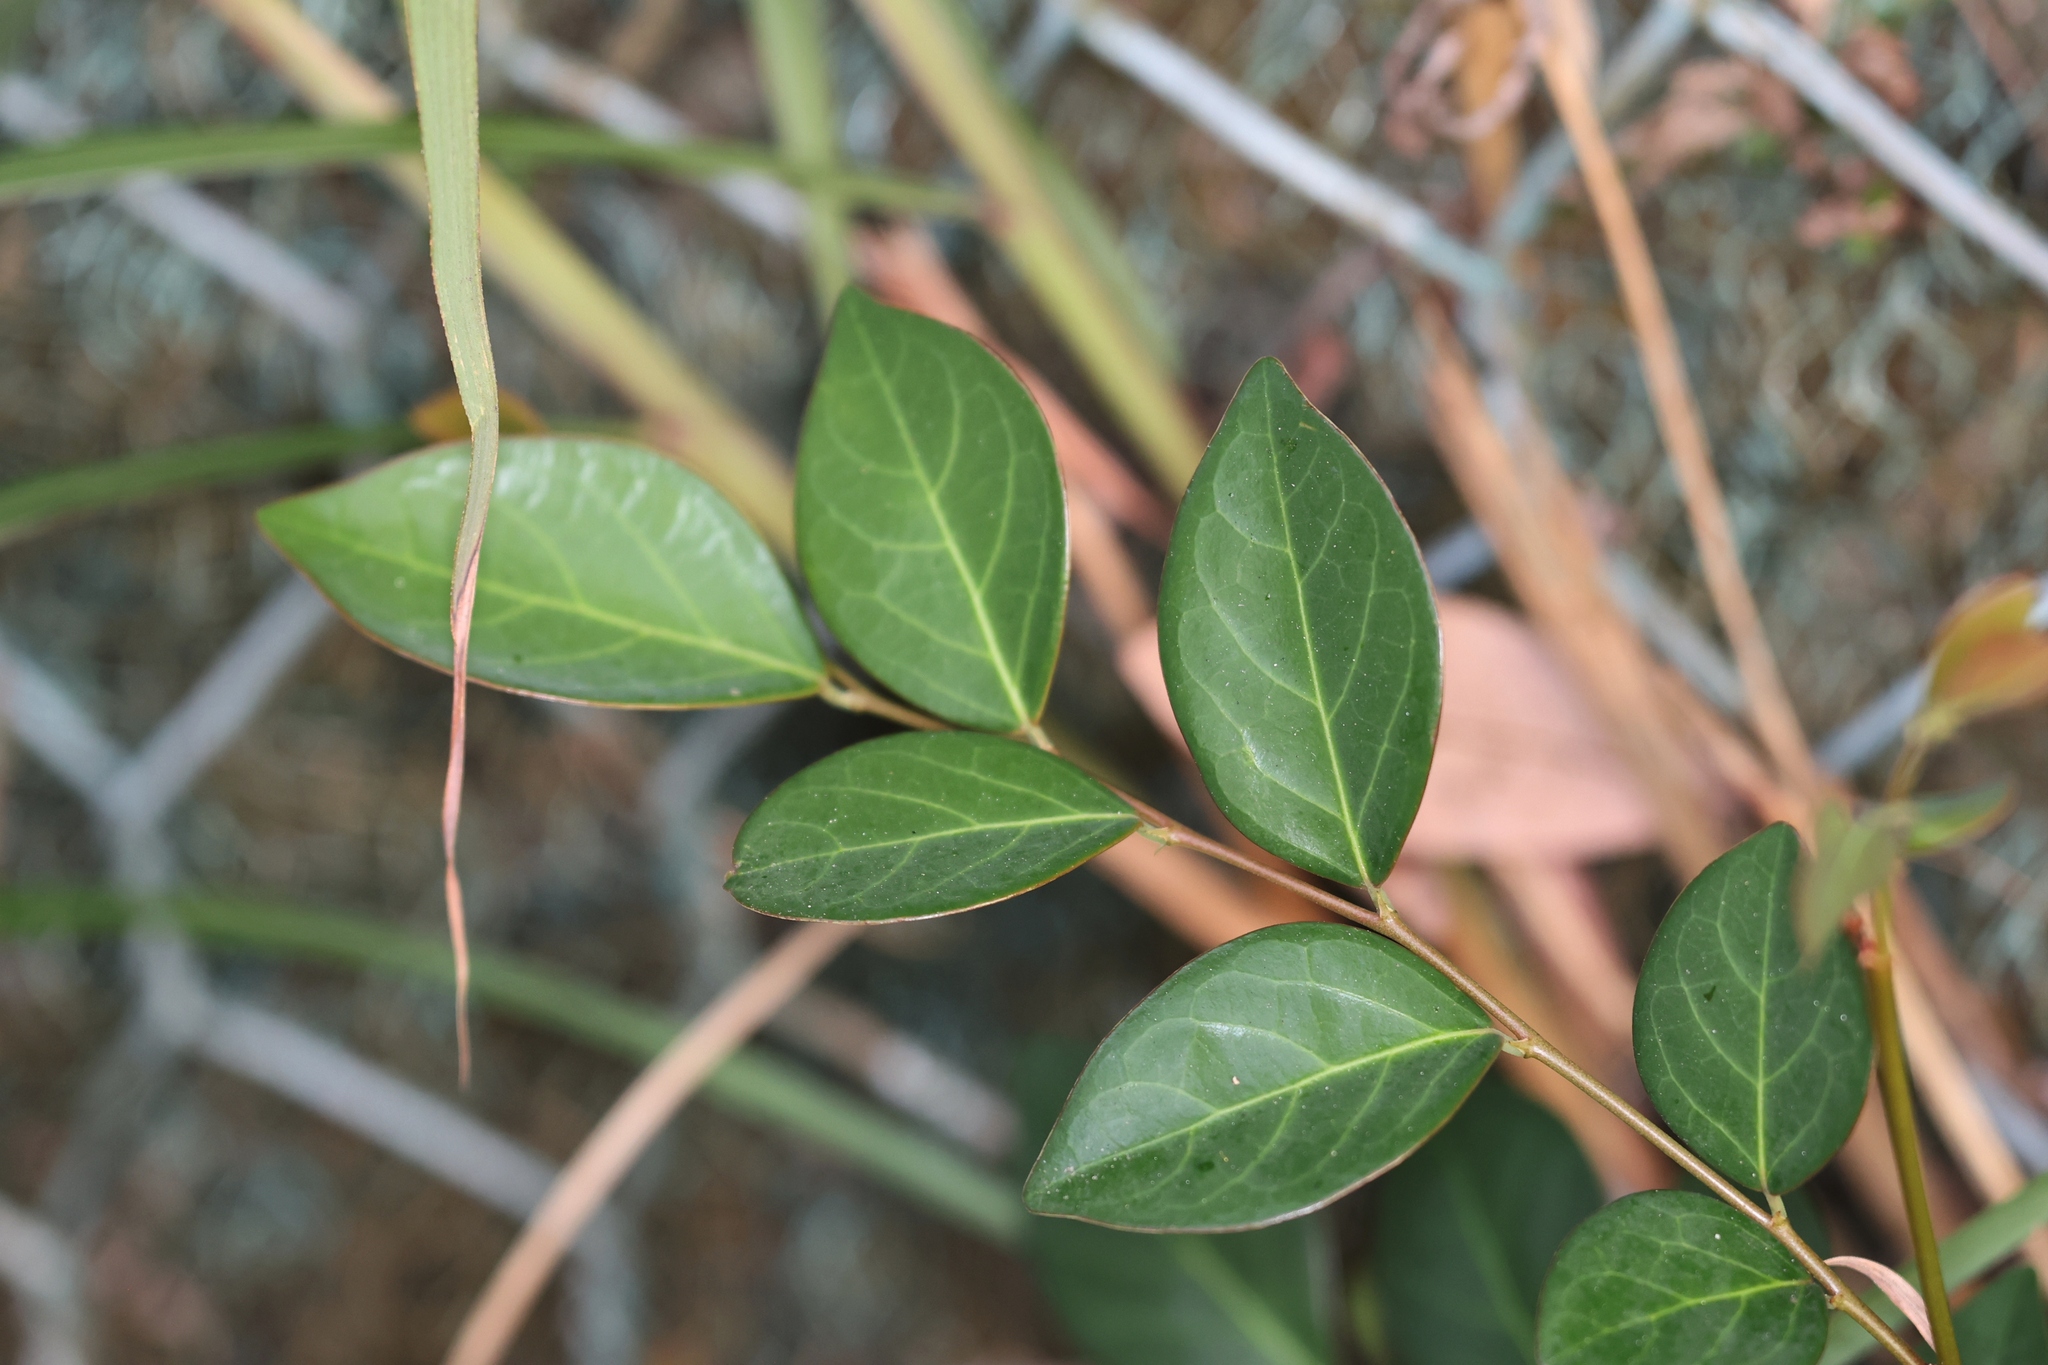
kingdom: Plantae
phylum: Tracheophyta
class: Magnoliopsida
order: Malpighiales
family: Phyllanthaceae
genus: Breynia
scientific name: Breynia fruticosa
